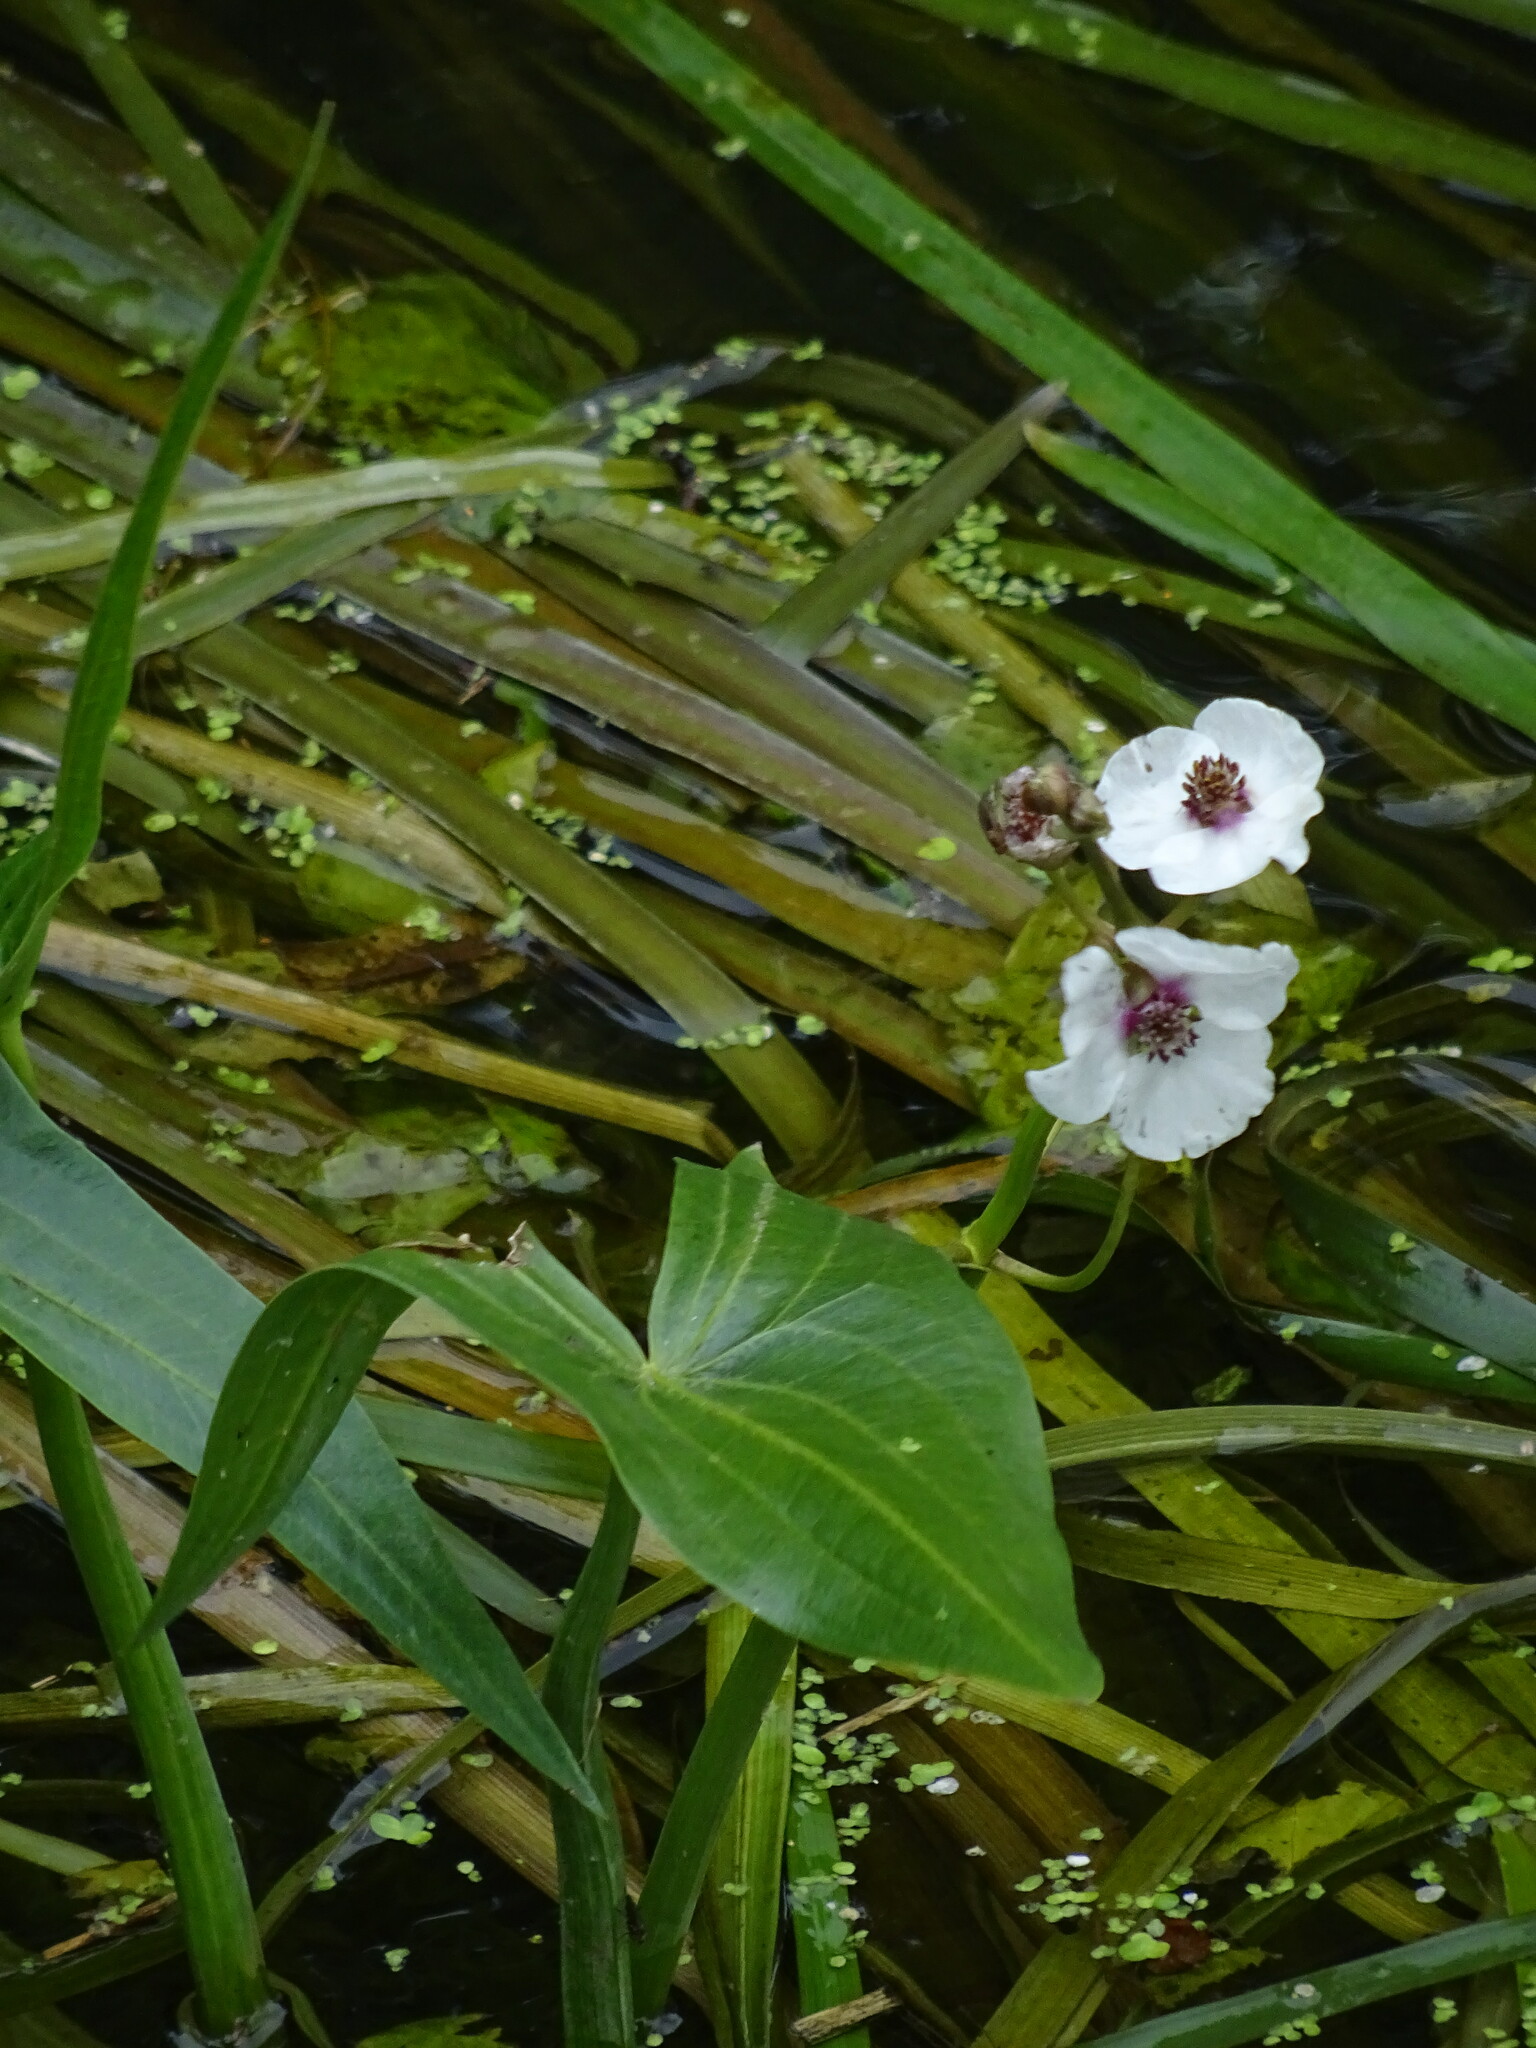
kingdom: Plantae
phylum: Tracheophyta
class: Liliopsida
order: Alismatales
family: Alismataceae
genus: Sagittaria
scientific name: Sagittaria sagittifolia
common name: Arrowhead
